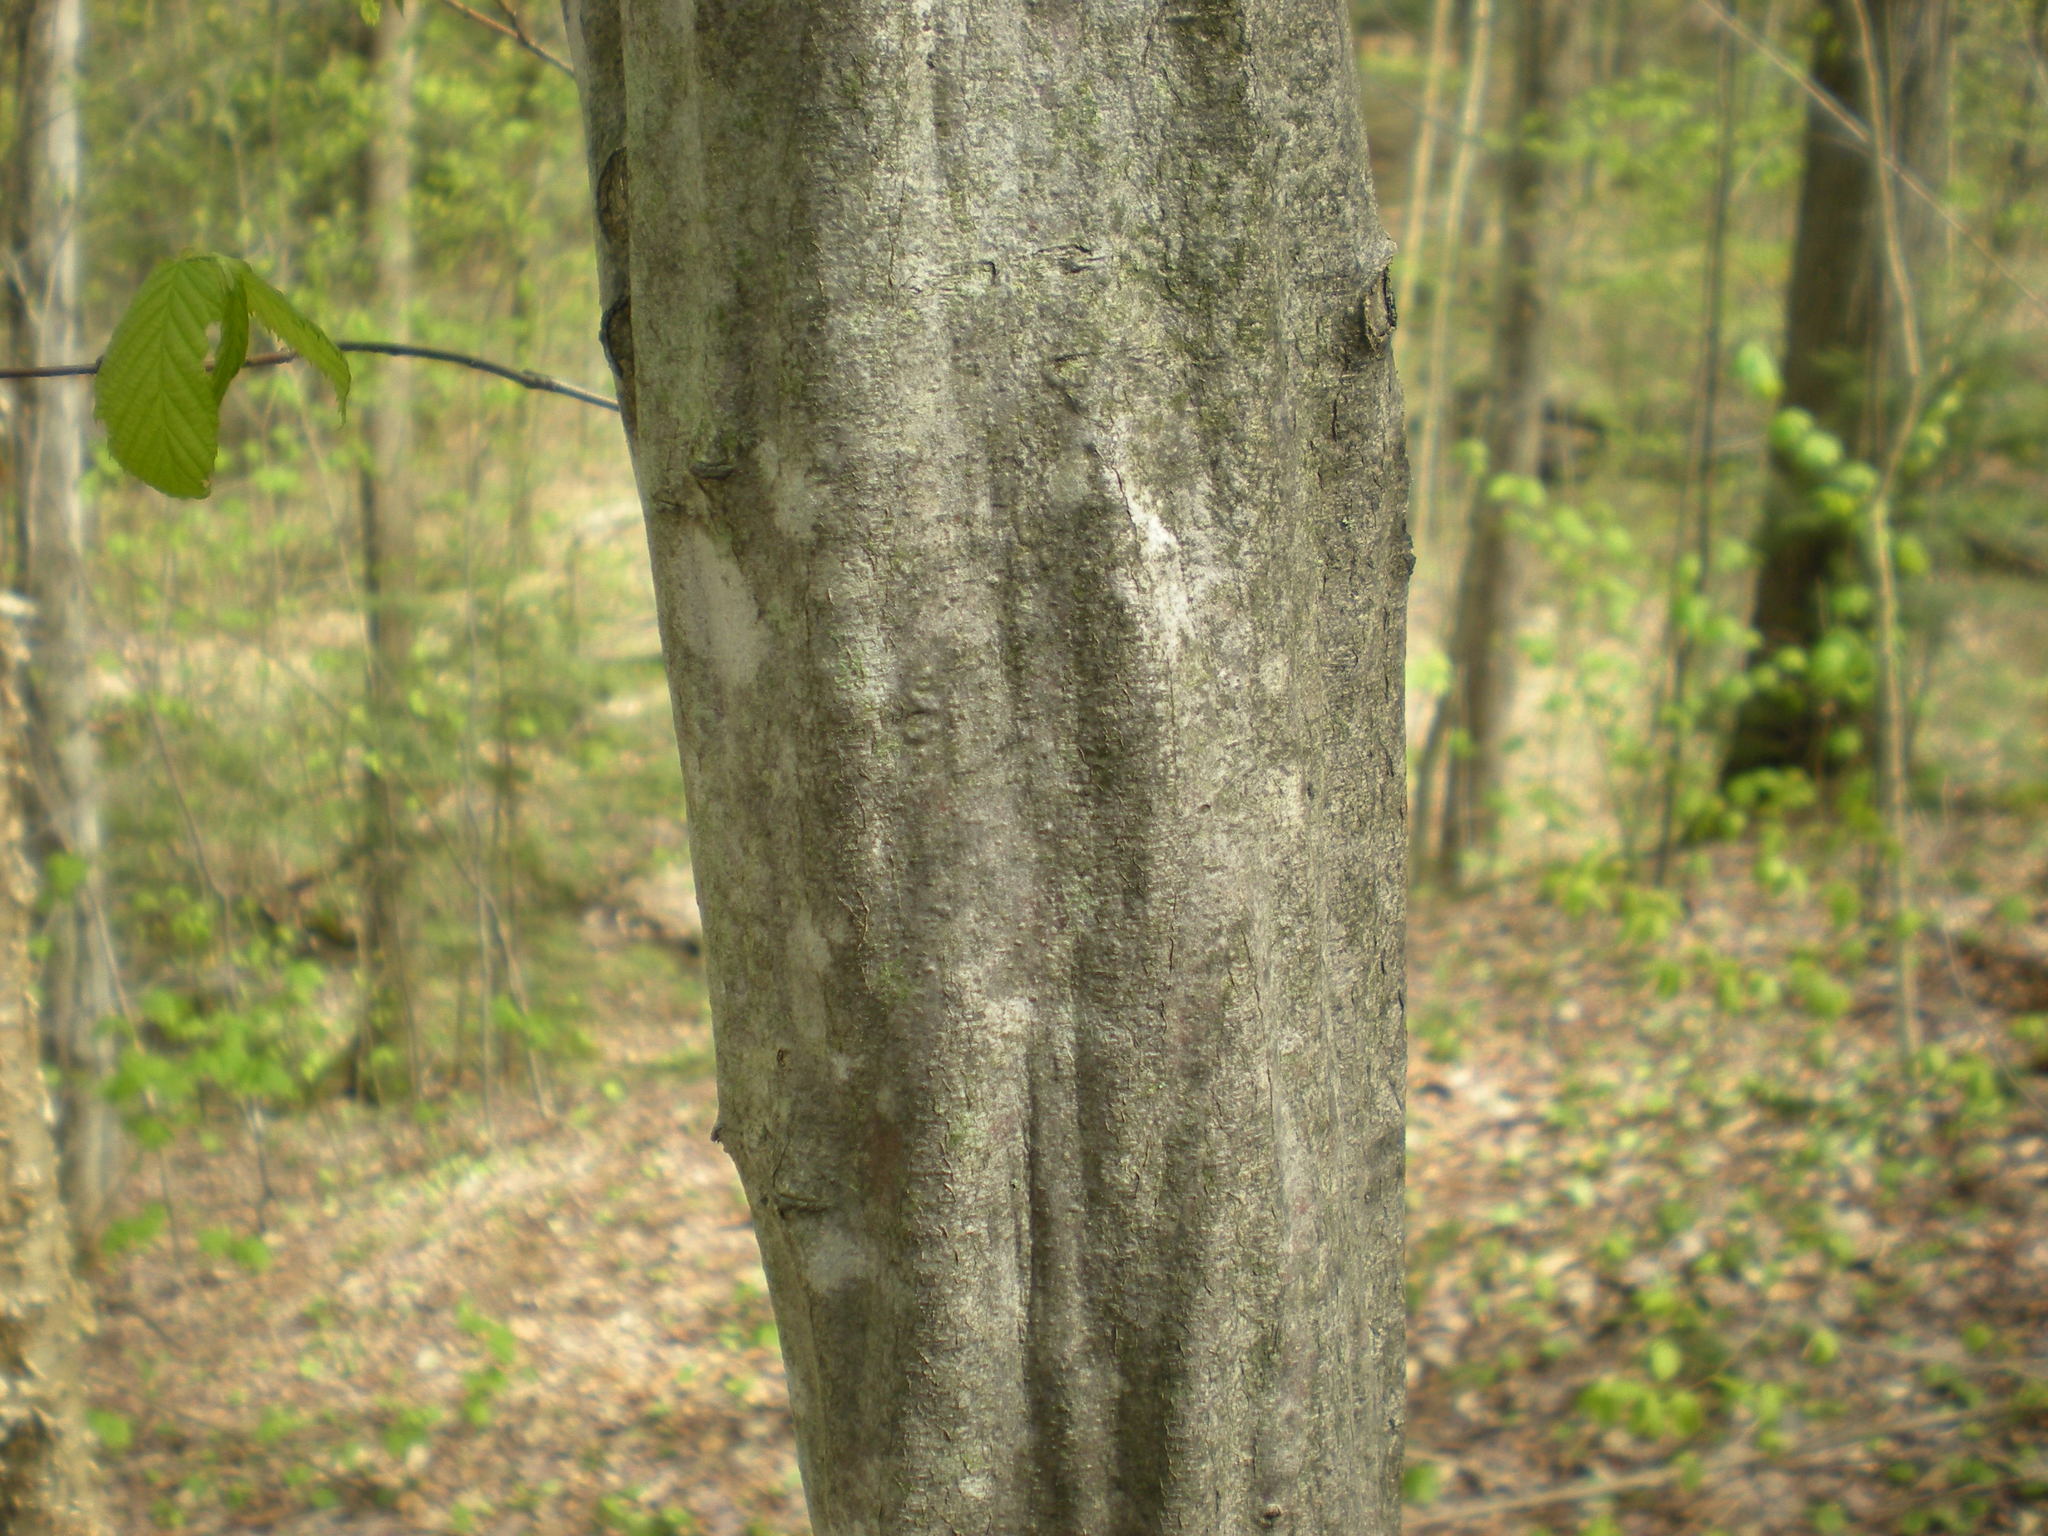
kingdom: Plantae
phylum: Tracheophyta
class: Magnoliopsida
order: Fagales
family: Betulaceae
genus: Carpinus
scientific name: Carpinus caroliniana
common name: American hornbeam
